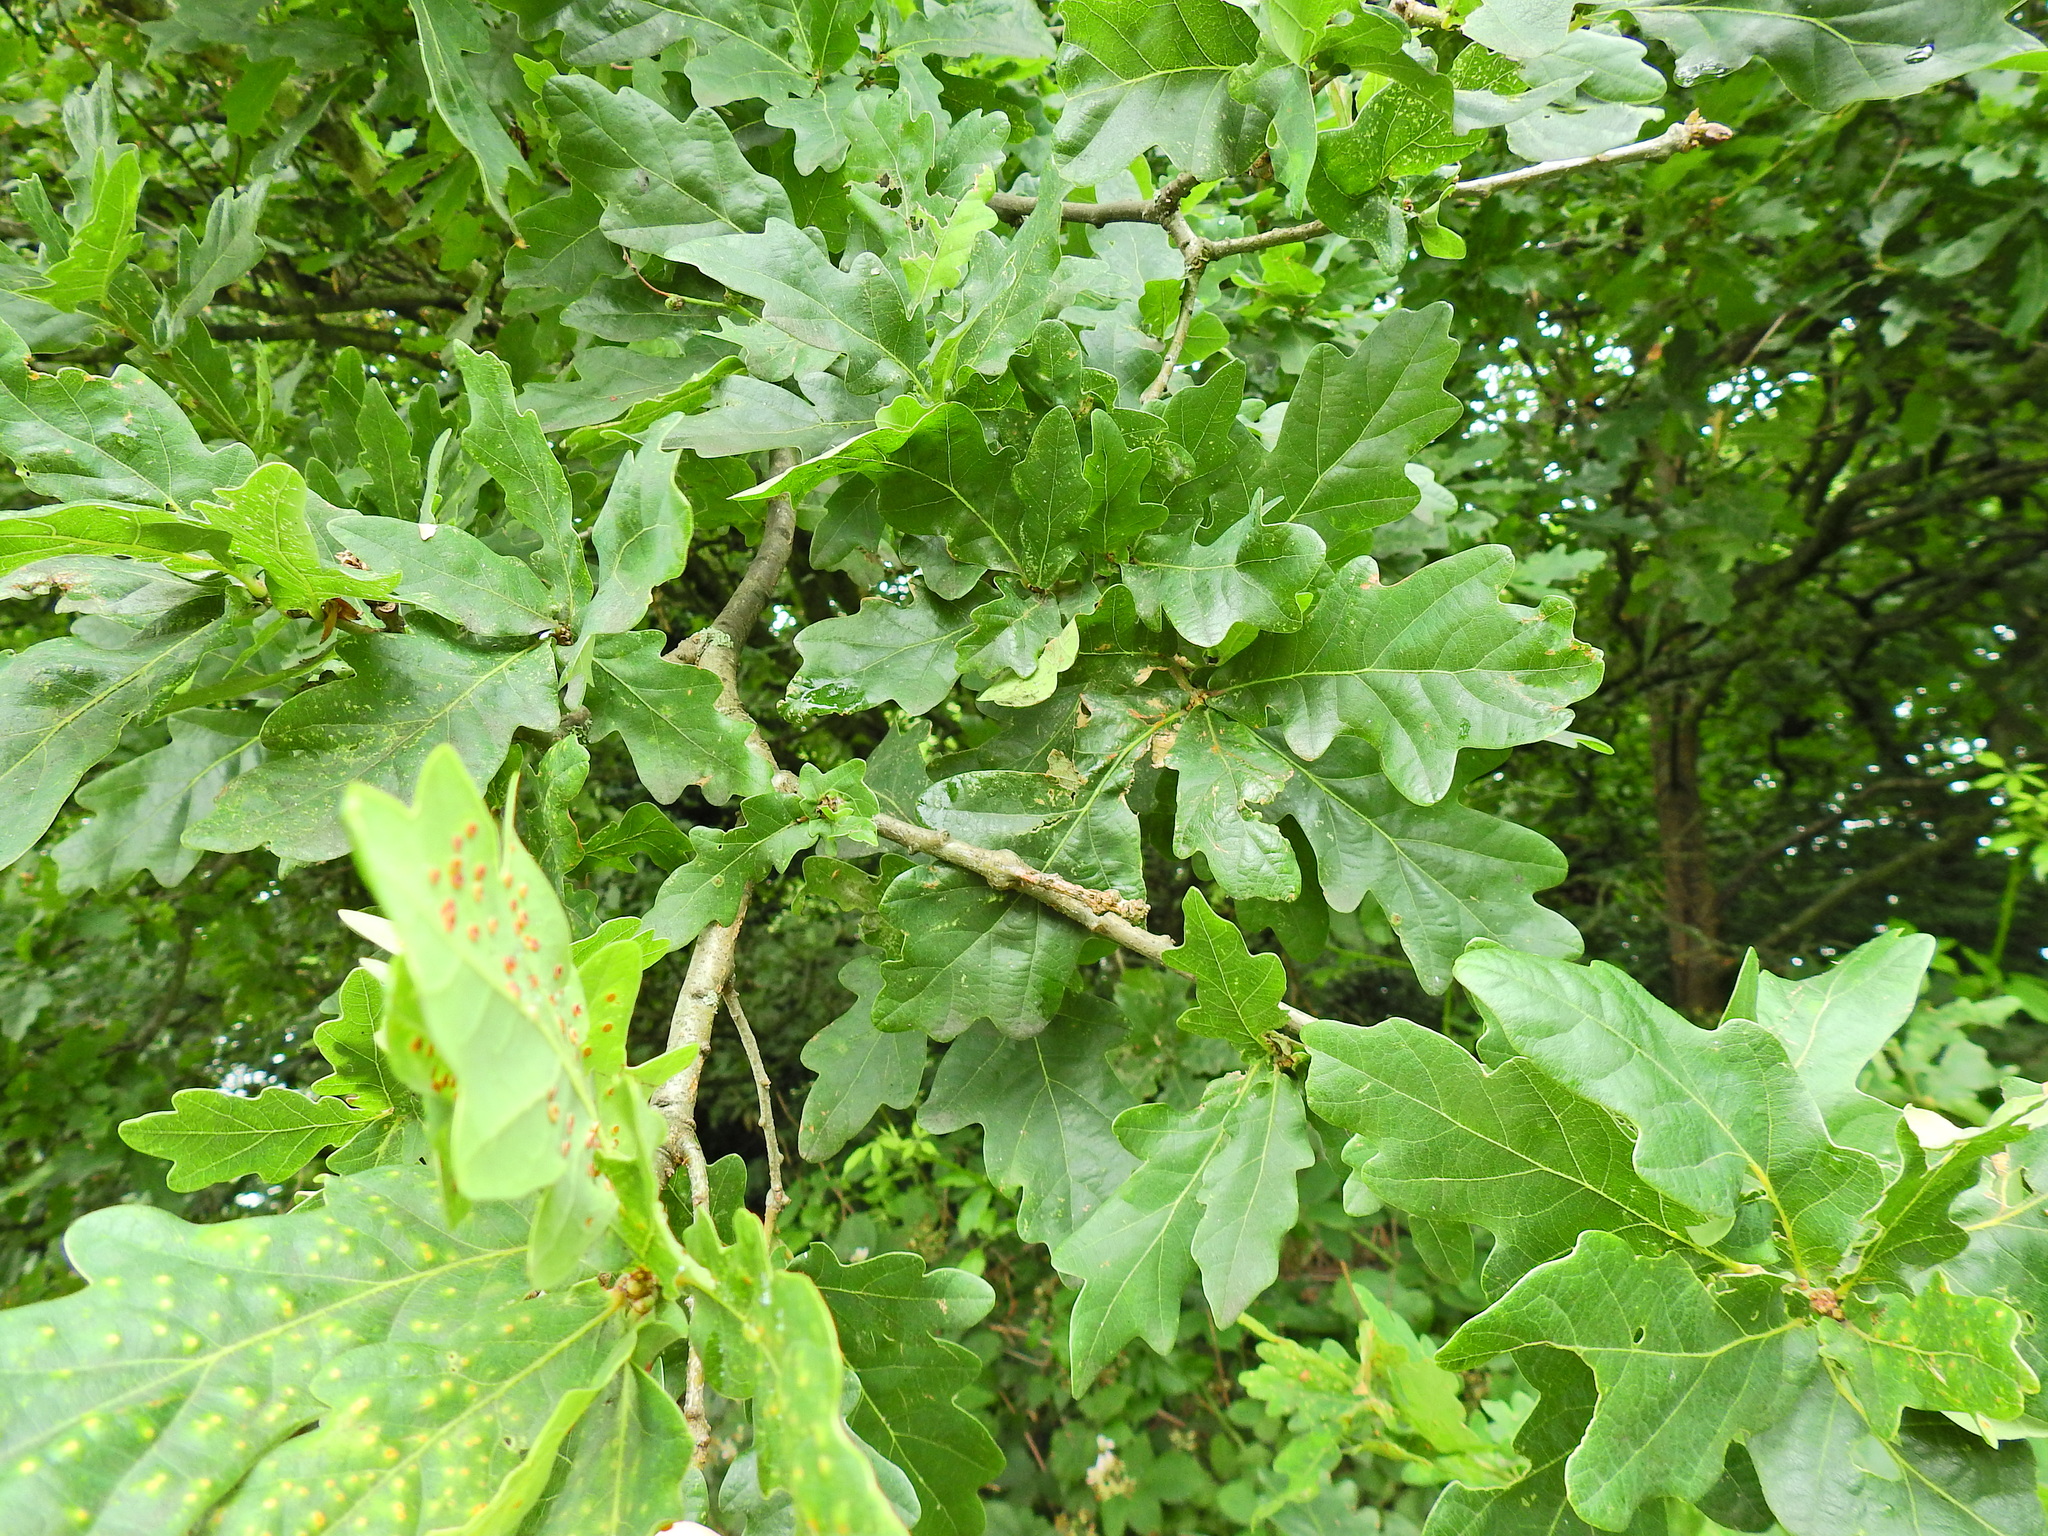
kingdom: Plantae
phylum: Tracheophyta
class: Magnoliopsida
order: Fagales
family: Fagaceae
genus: Quercus
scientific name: Quercus robur
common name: Pedunculate oak
